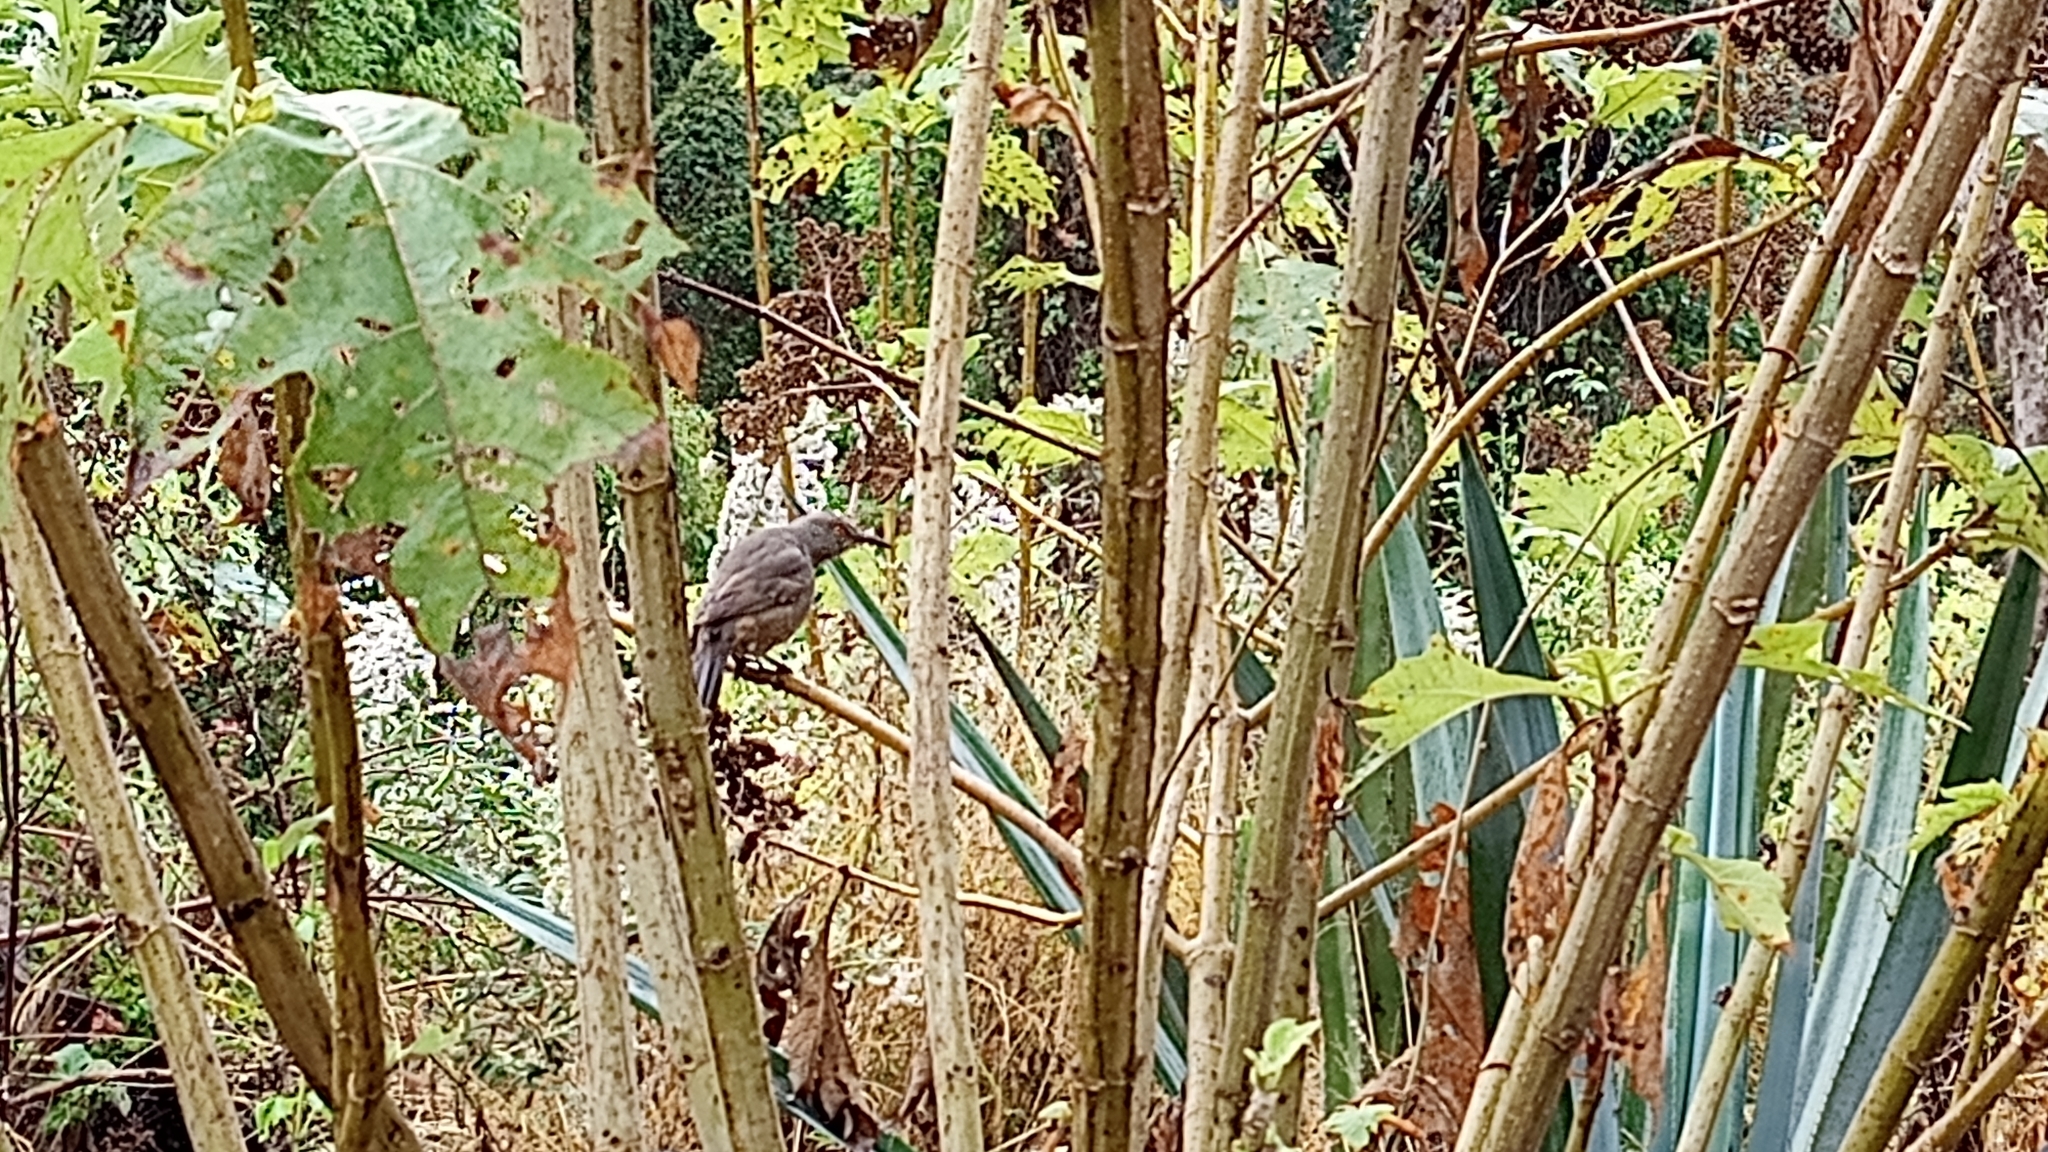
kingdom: Animalia
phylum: Chordata
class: Aves
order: Passeriformes
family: Mimidae
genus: Toxostoma
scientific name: Toxostoma curvirostre
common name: Curve-billed thrasher
